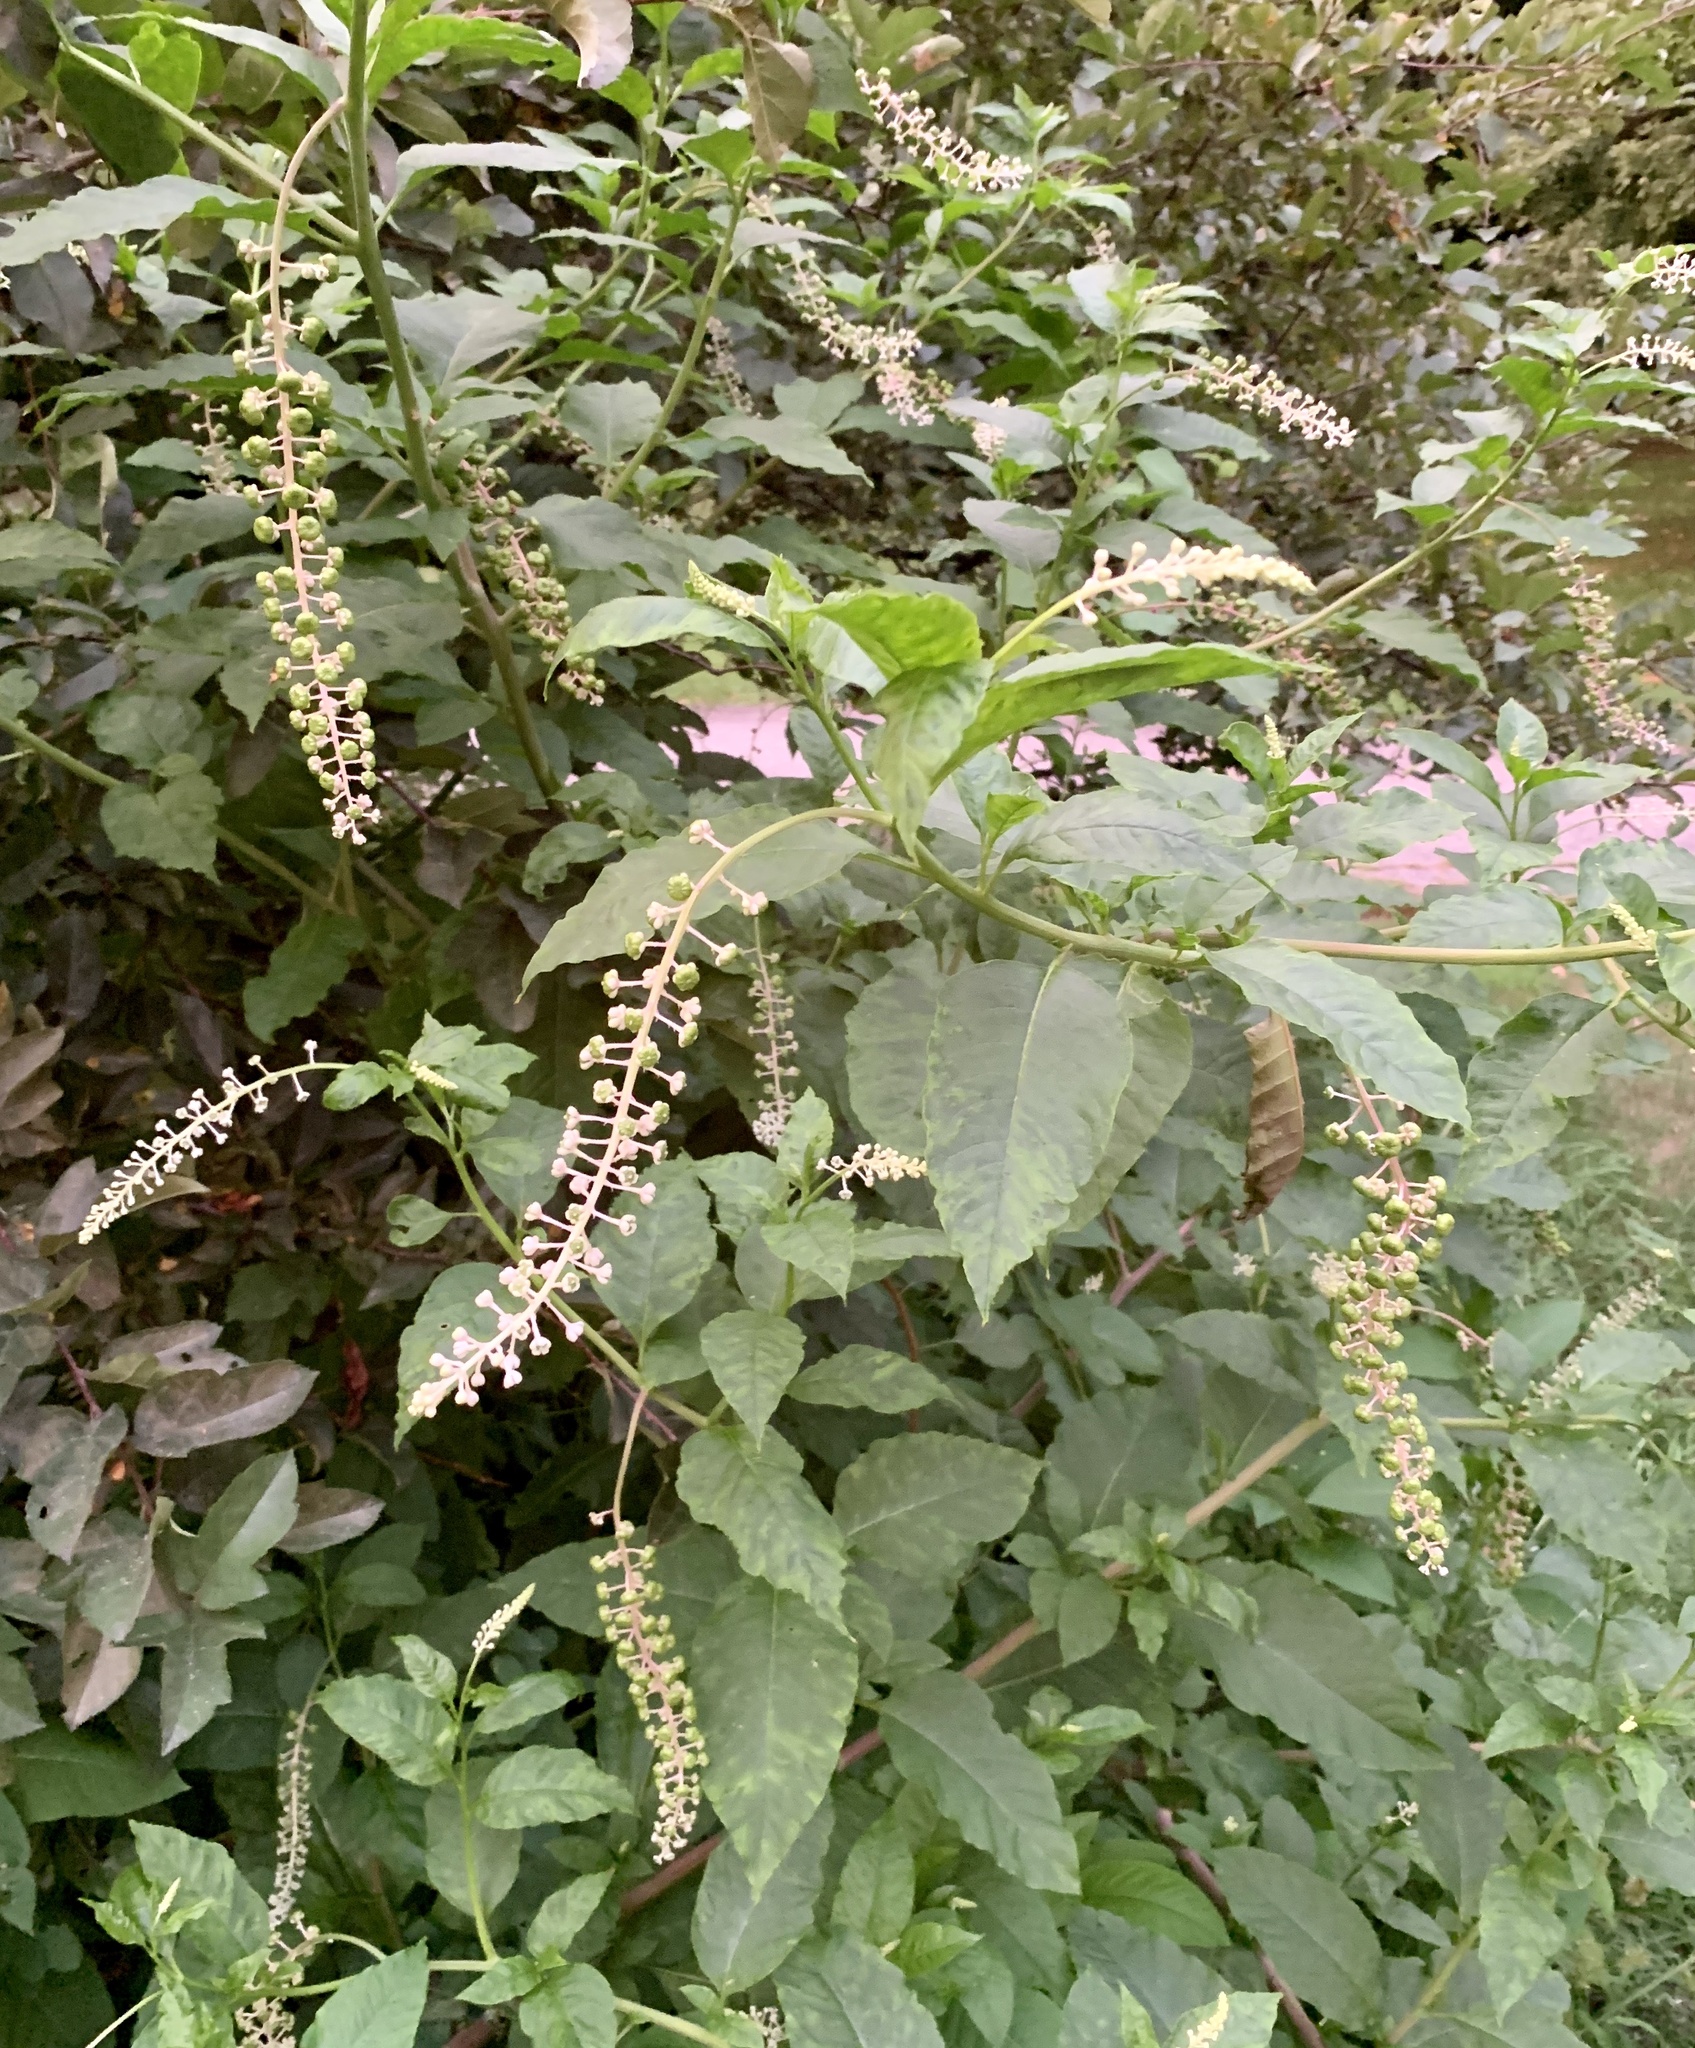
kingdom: Plantae
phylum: Tracheophyta
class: Magnoliopsida
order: Caryophyllales
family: Phytolaccaceae
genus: Phytolacca
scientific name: Phytolacca americana
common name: American pokeweed
